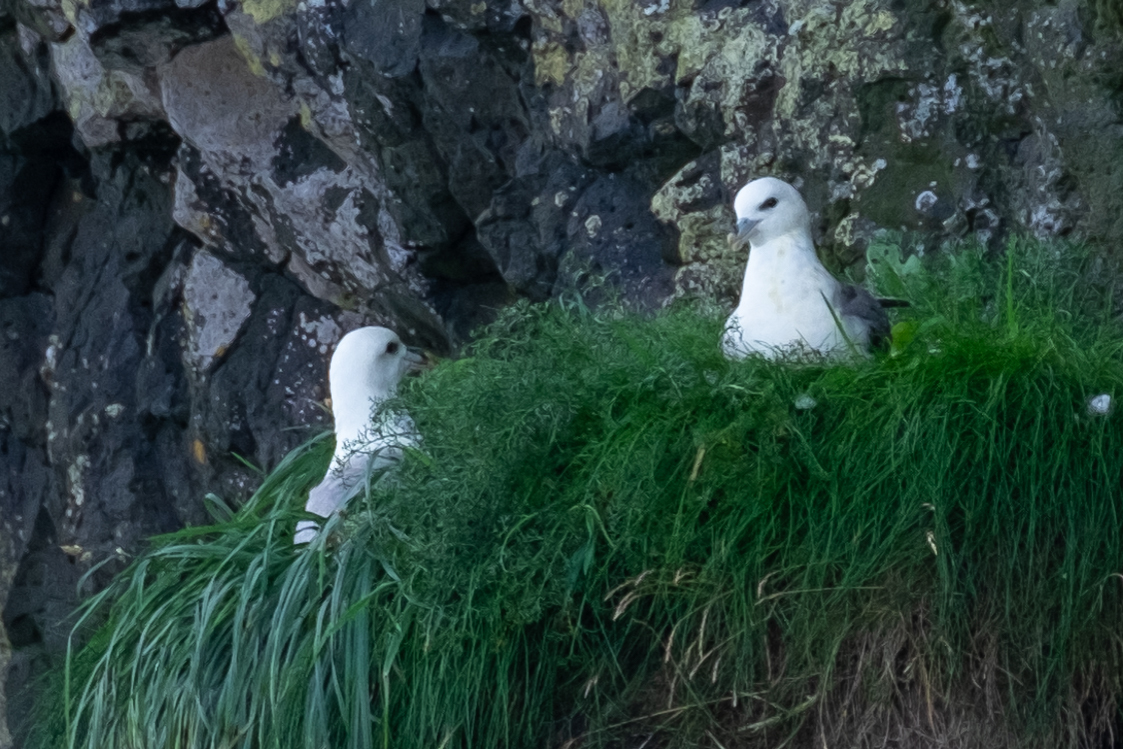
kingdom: Animalia
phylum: Chordata
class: Aves
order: Procellariiformes
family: Procellariidae
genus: Fulmarus
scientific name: Fulmarus glacialis
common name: Northern fulmar
